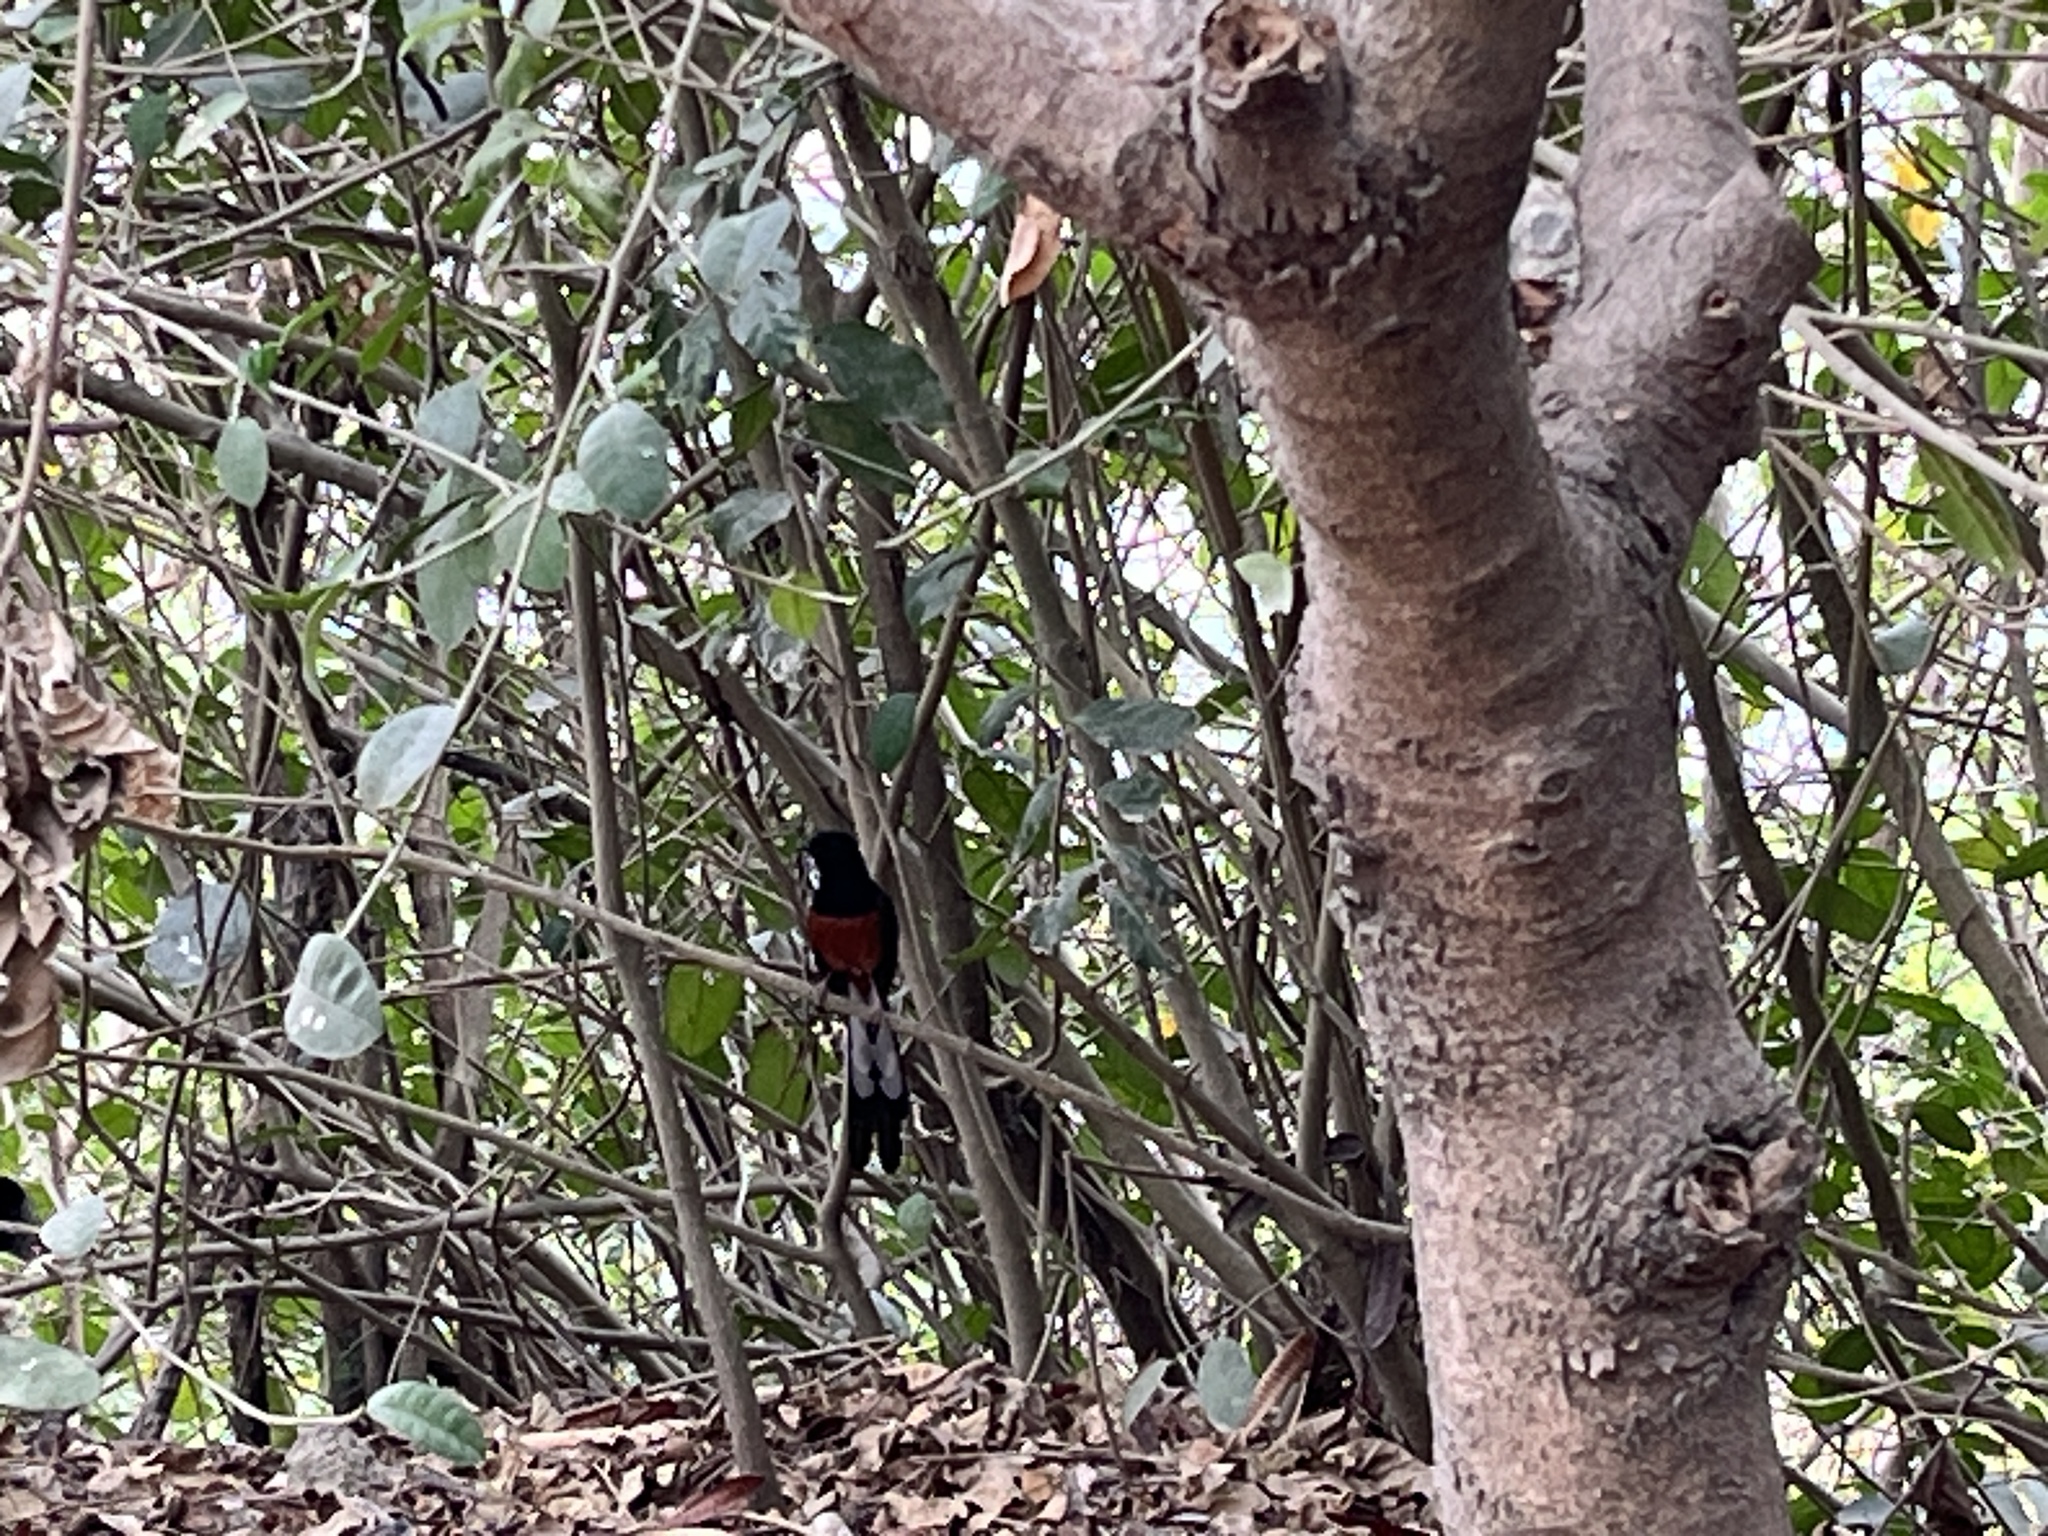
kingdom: Animalia
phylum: Chordata
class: Aves
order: Passeriformes
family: Muscicapidae
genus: Copsychus
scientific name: Copsychus malabaricus
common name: White-rumped shama
